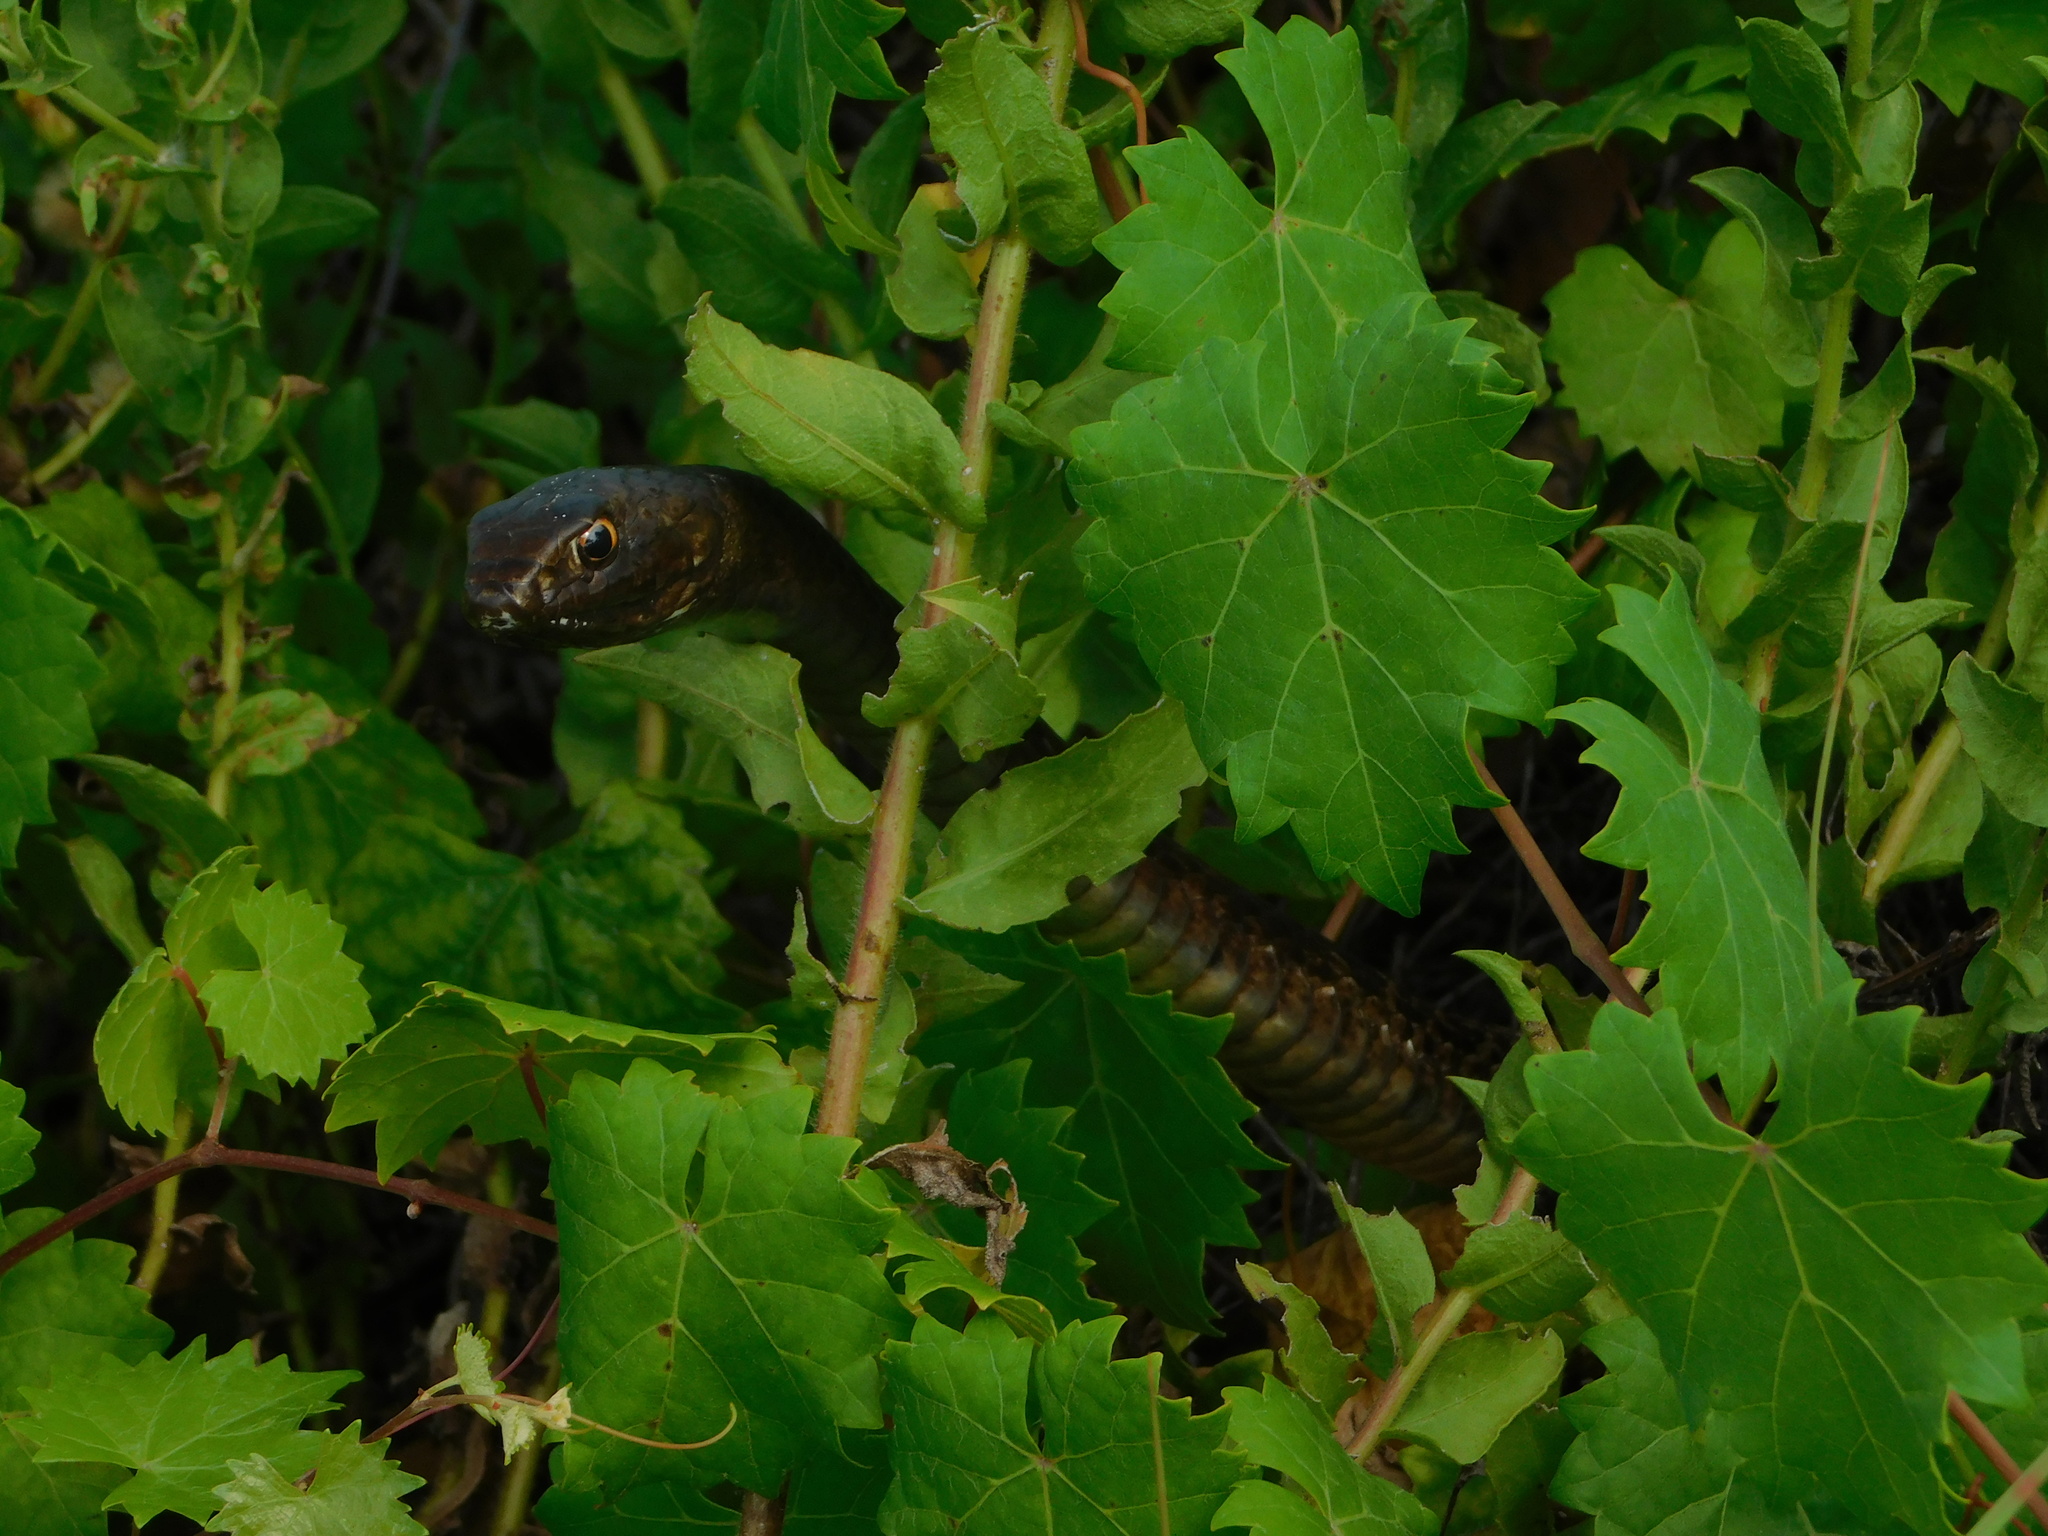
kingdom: Animalia
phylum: Chordata
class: Squamata
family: Colubridae
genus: Masticophis
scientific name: Masticophis flagellum
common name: Coachwhip
